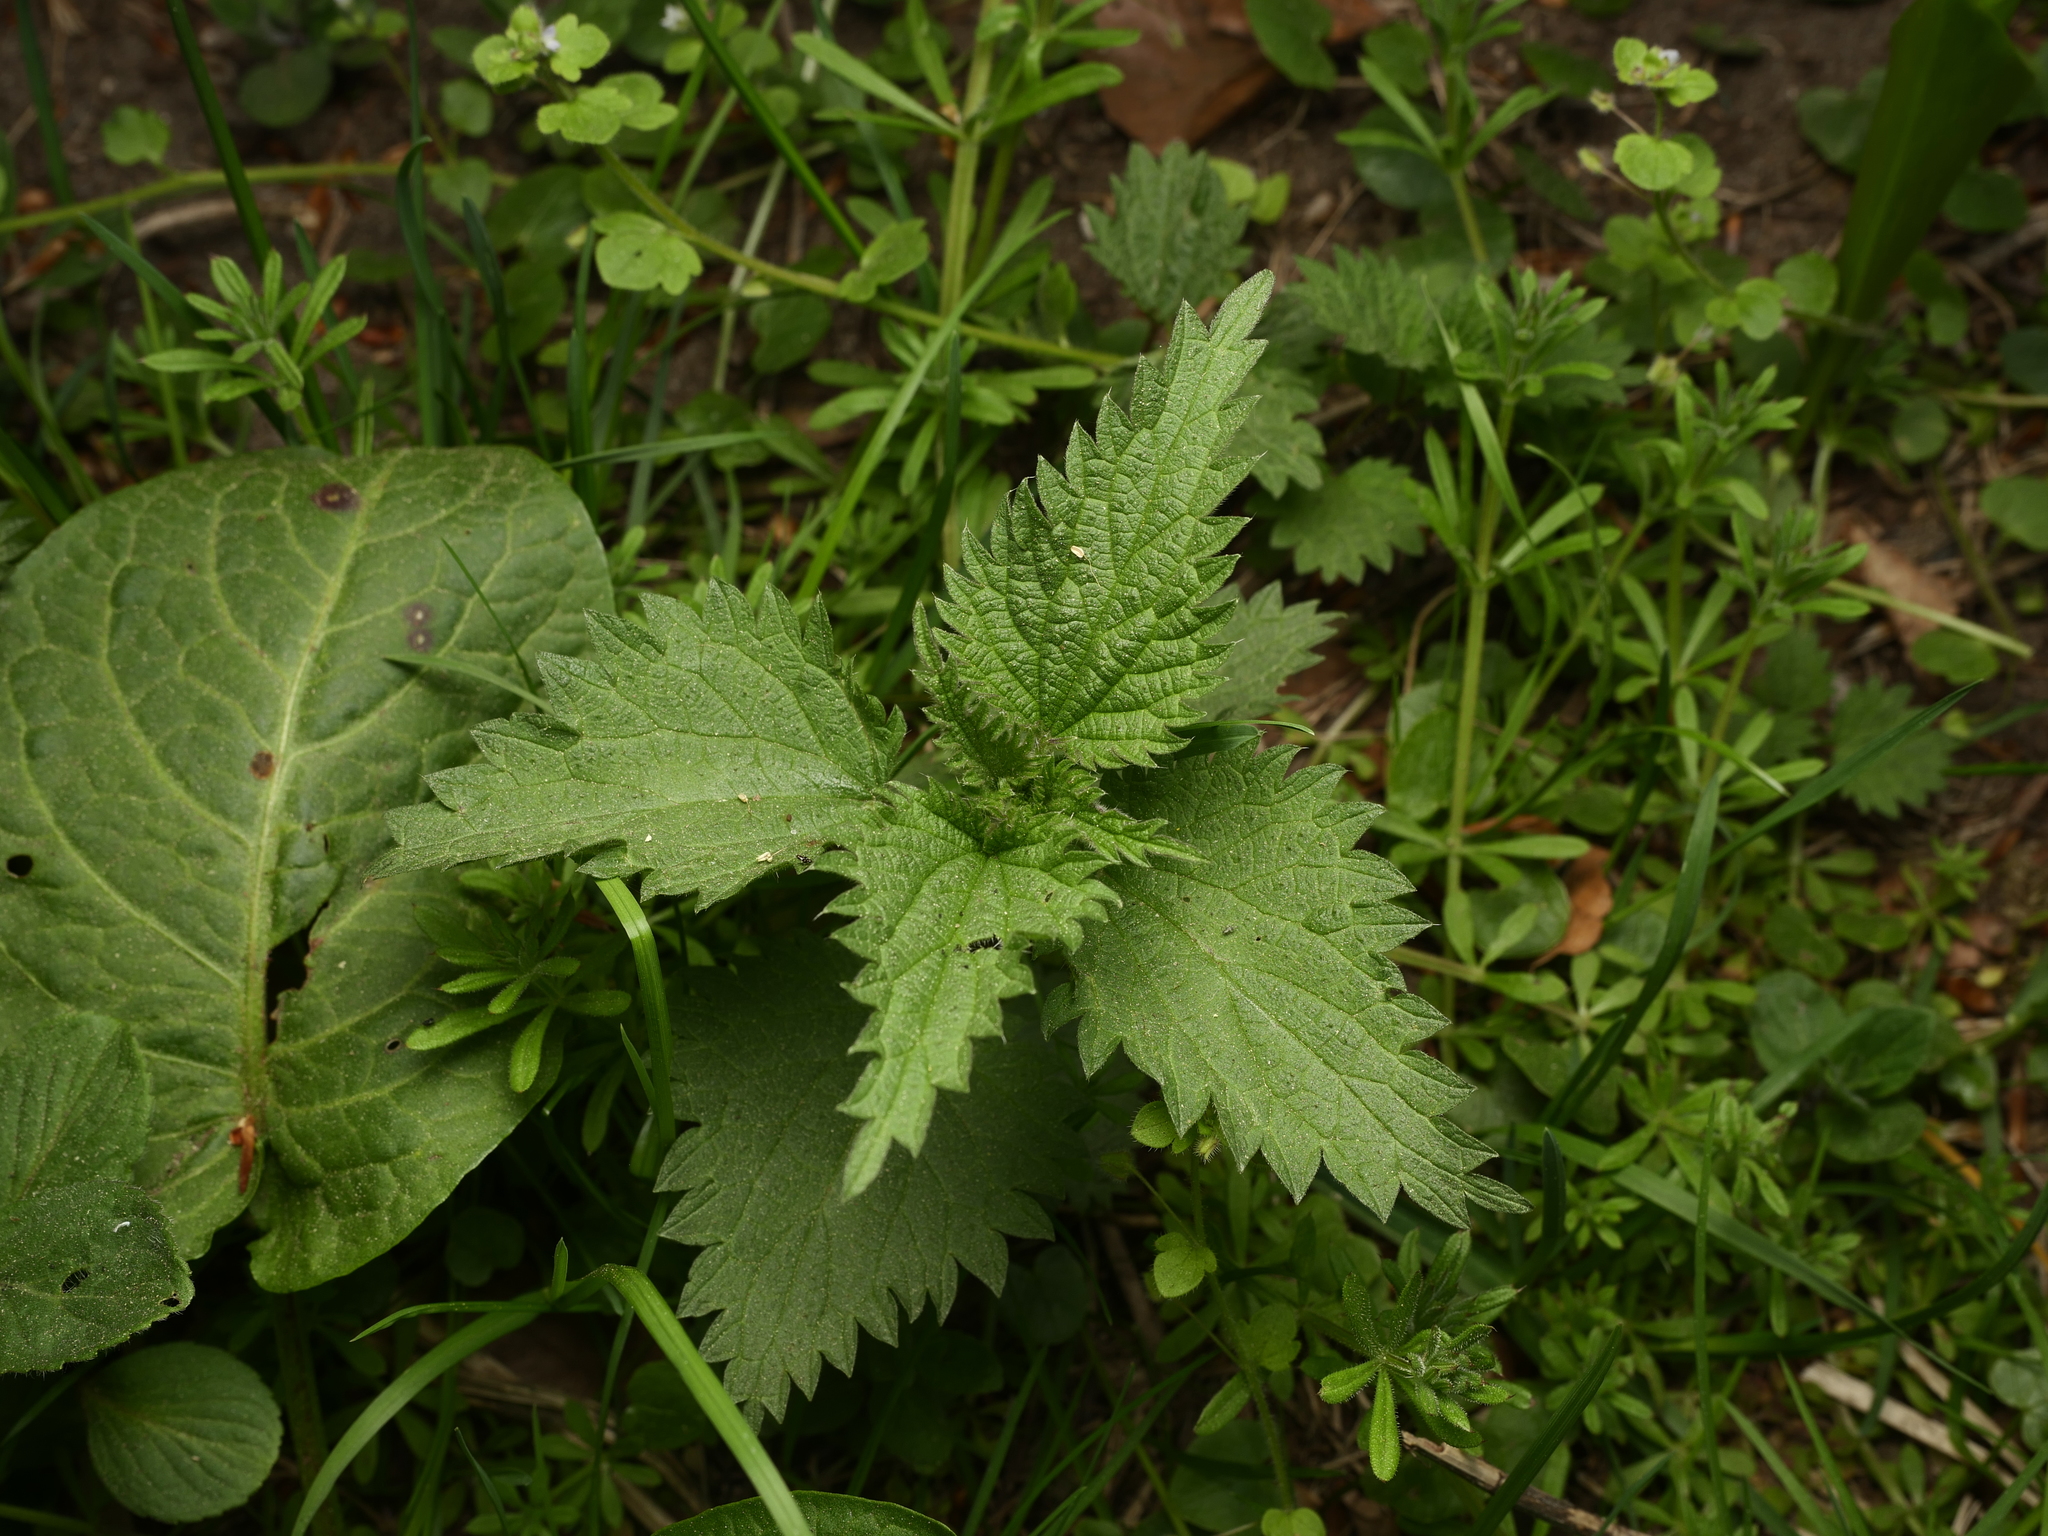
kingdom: Plantae
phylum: Tracheophyta
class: Magnoliopsida
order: Rosales
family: Urticaceae
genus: Urtica
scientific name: Urtica dioica
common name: Common nettle
